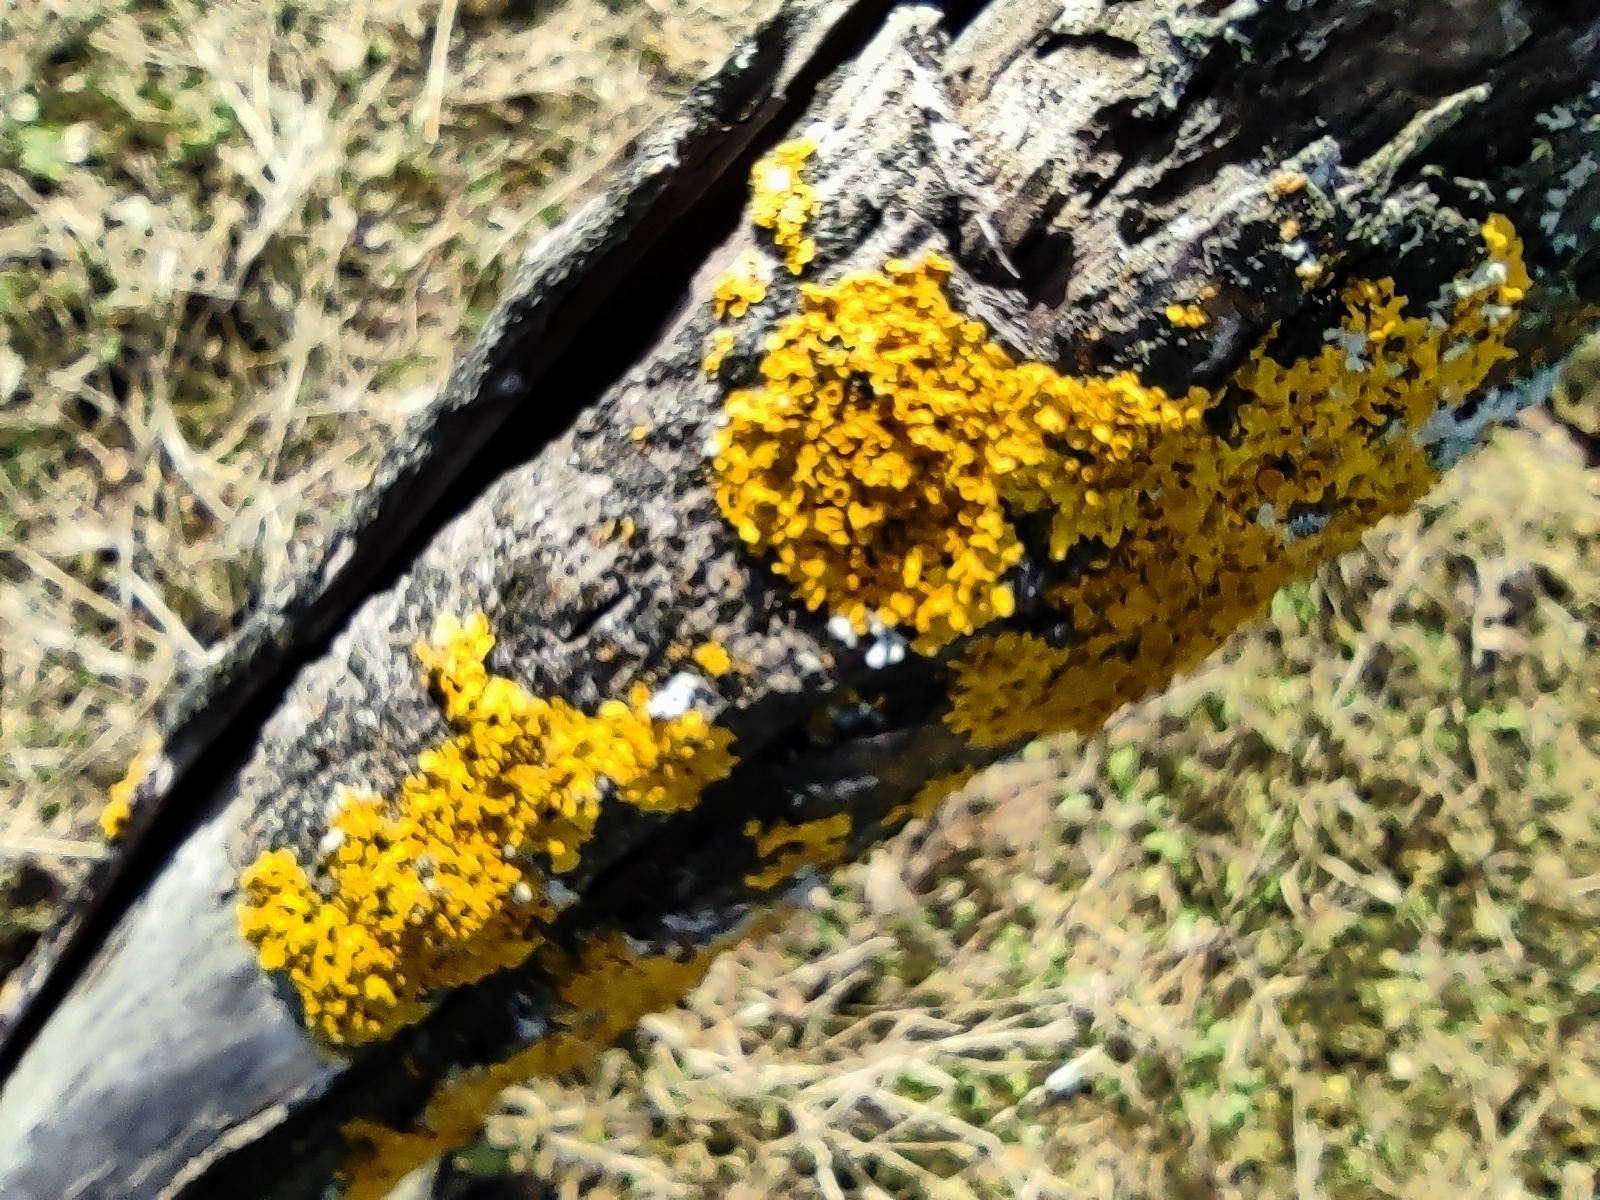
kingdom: Fungi
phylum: Ascomycota
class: Lecanoromycetes
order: Teloschistales
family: Teloschistaceae
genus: Xanthoria
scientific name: Xanthoria parietina
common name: Common orange lichen
